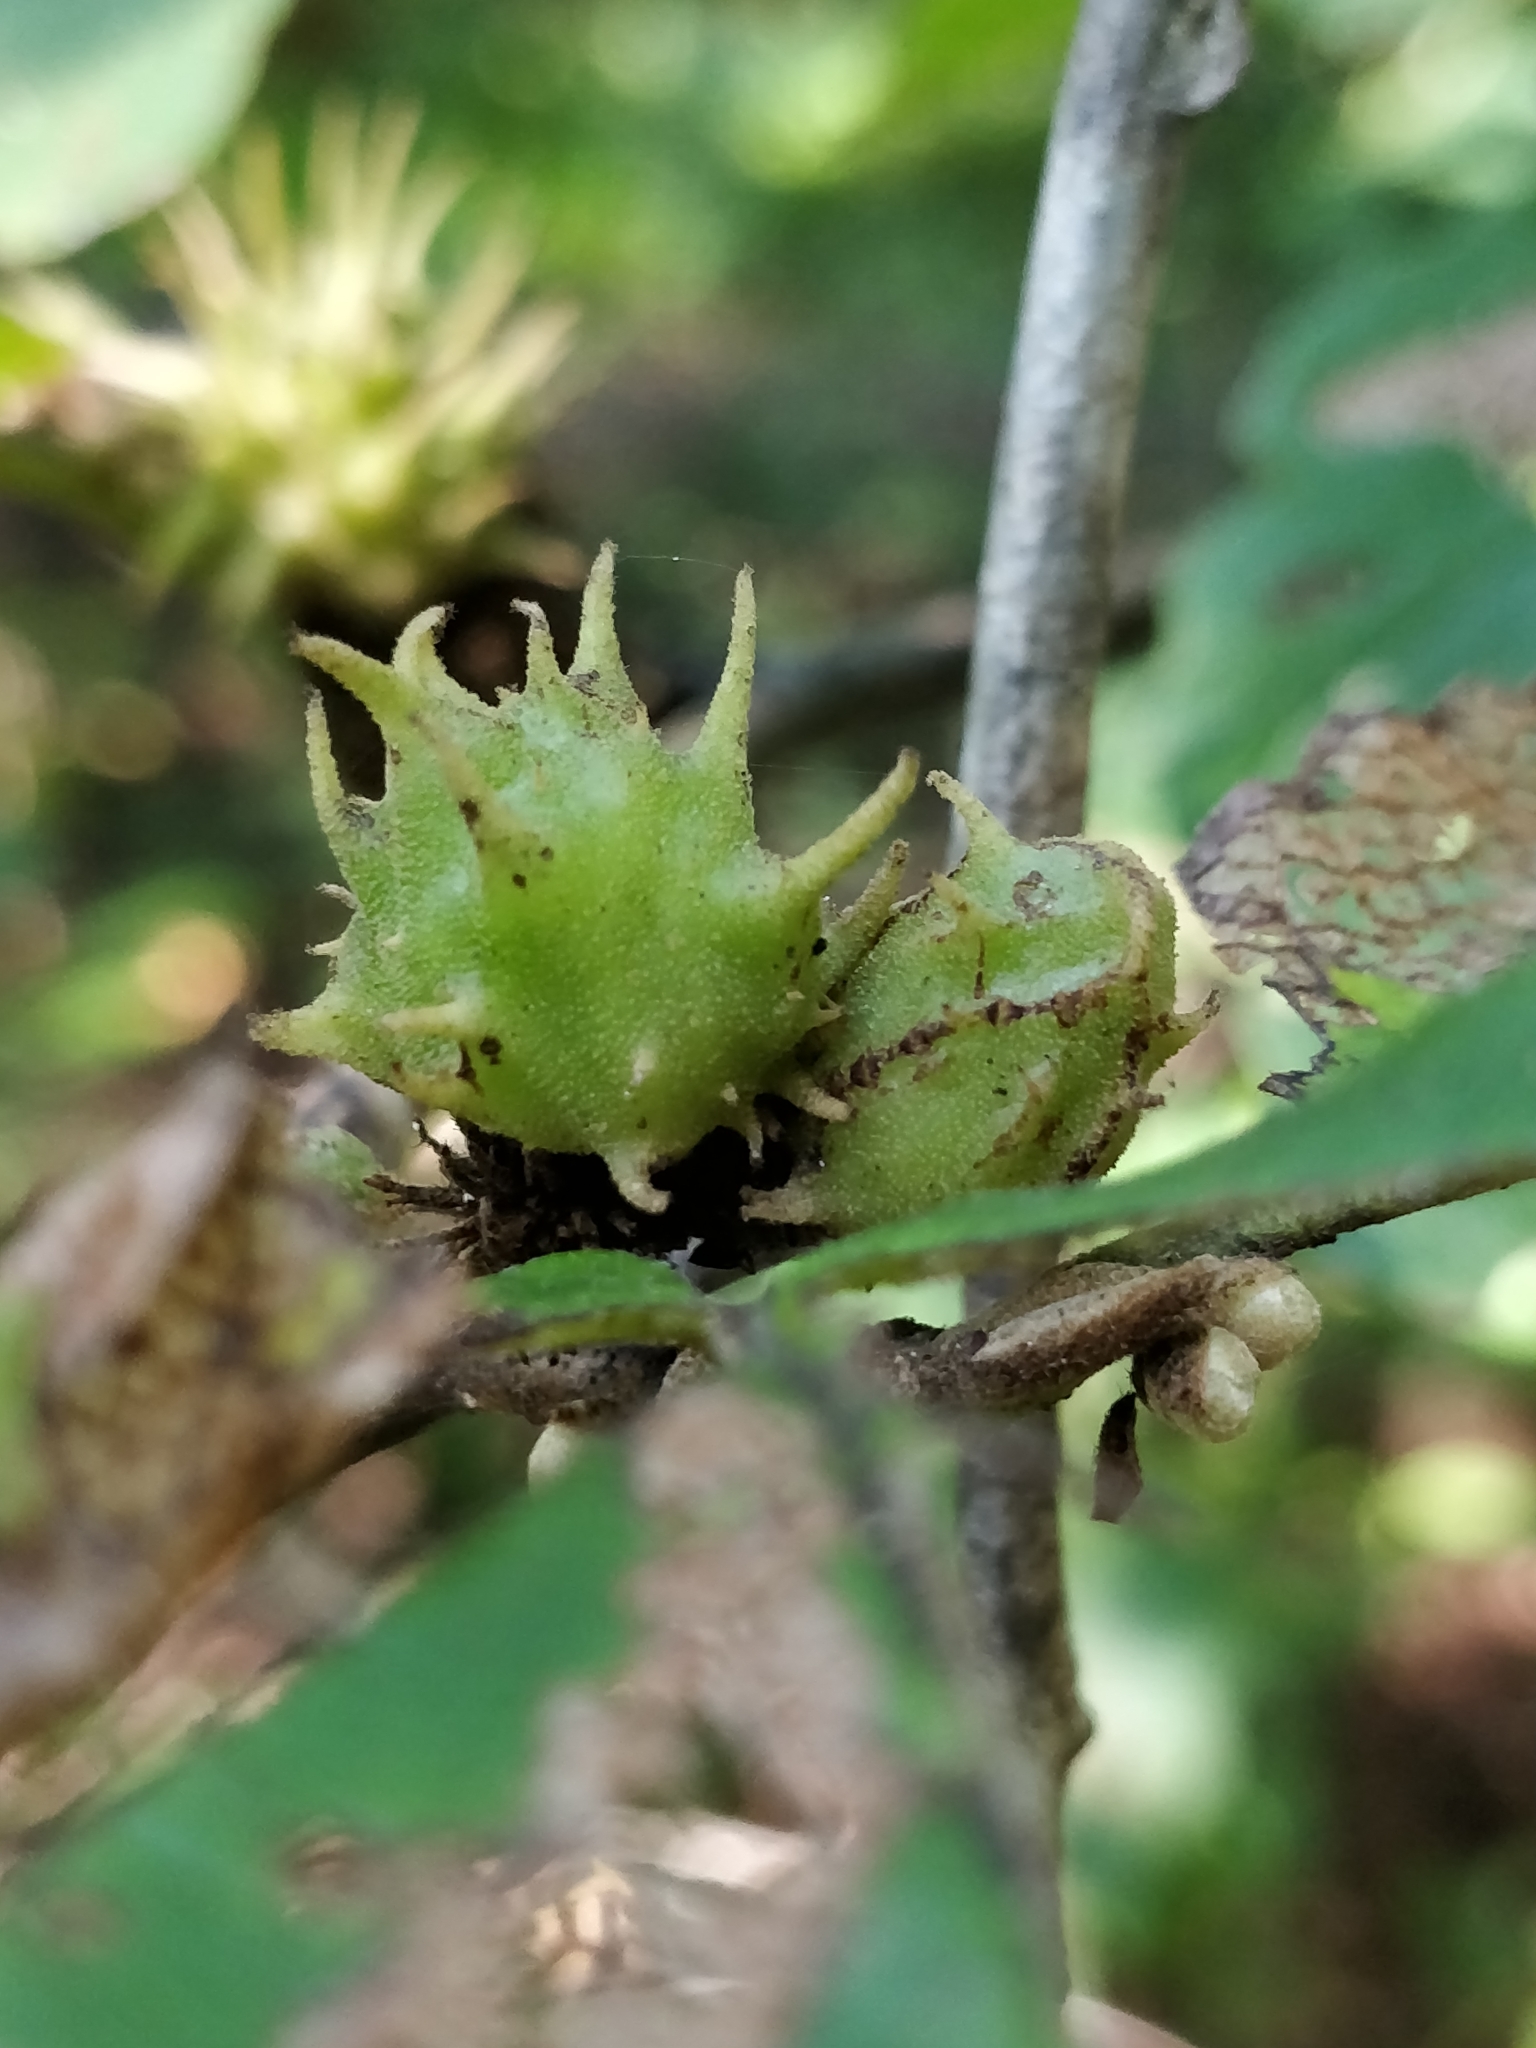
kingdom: Animalia
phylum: Arthropoda
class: Insecta
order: Hemiptera
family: Aphididae
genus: Hamamelistes
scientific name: Hamamelistes spinosus
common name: Witch hazel gall aphid
